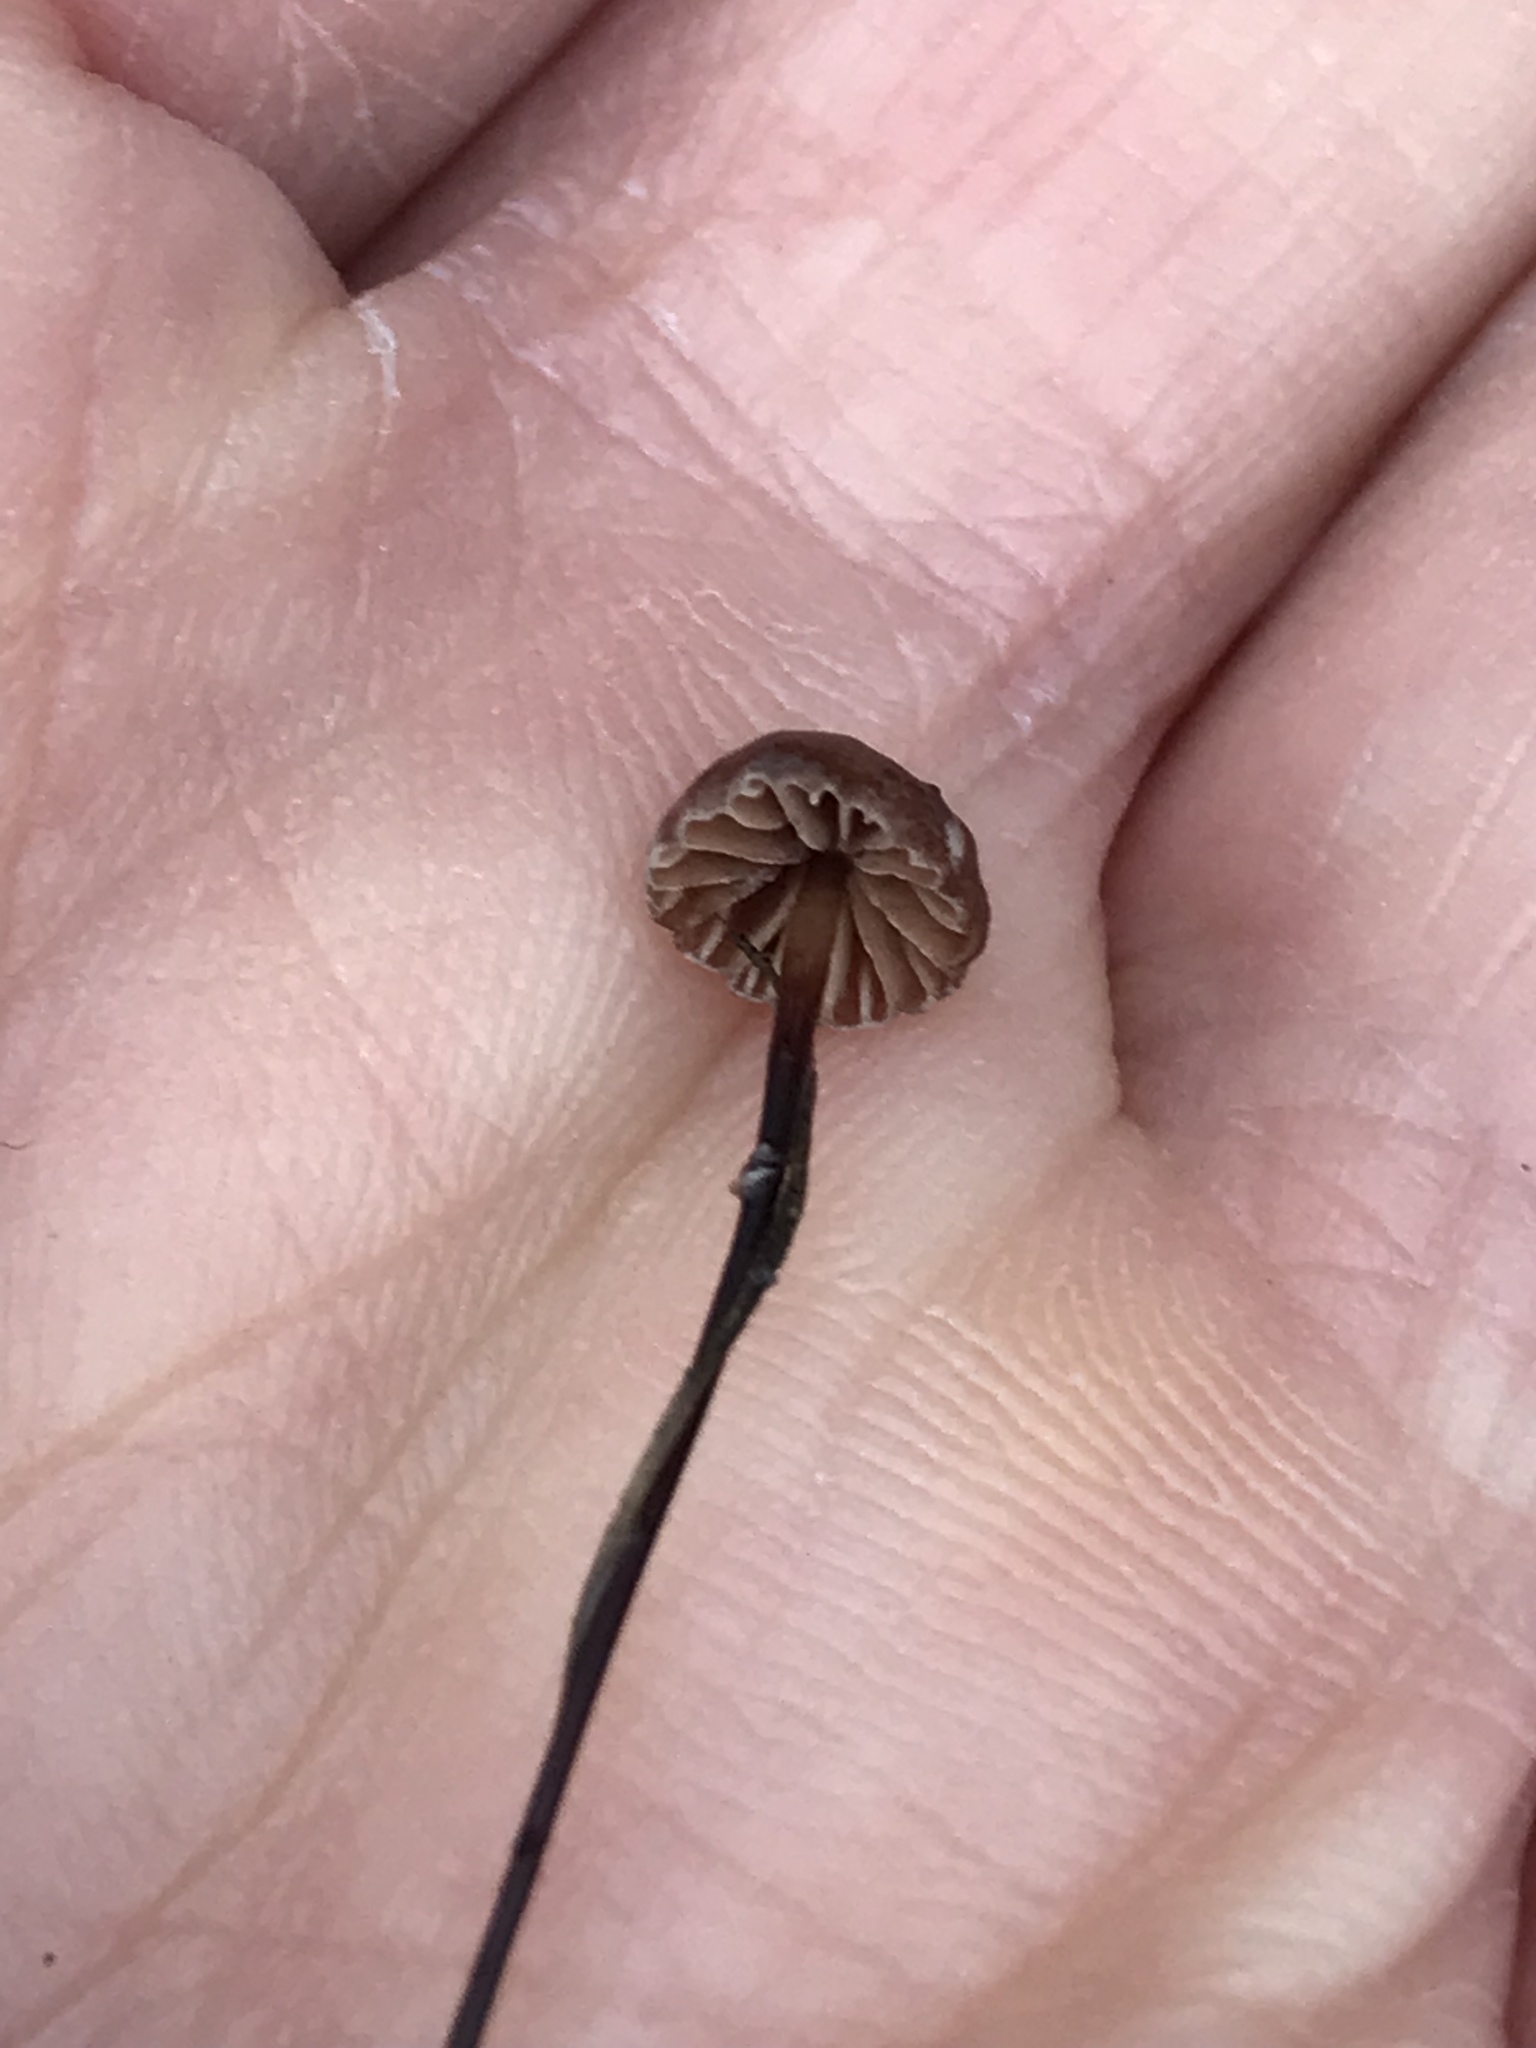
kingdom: Fungi
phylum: Basidiomycota
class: Agaricomycetes
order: Agaricales
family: Omphalotaceae
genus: Collybiopsis
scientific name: Collybiopsis quercophila
